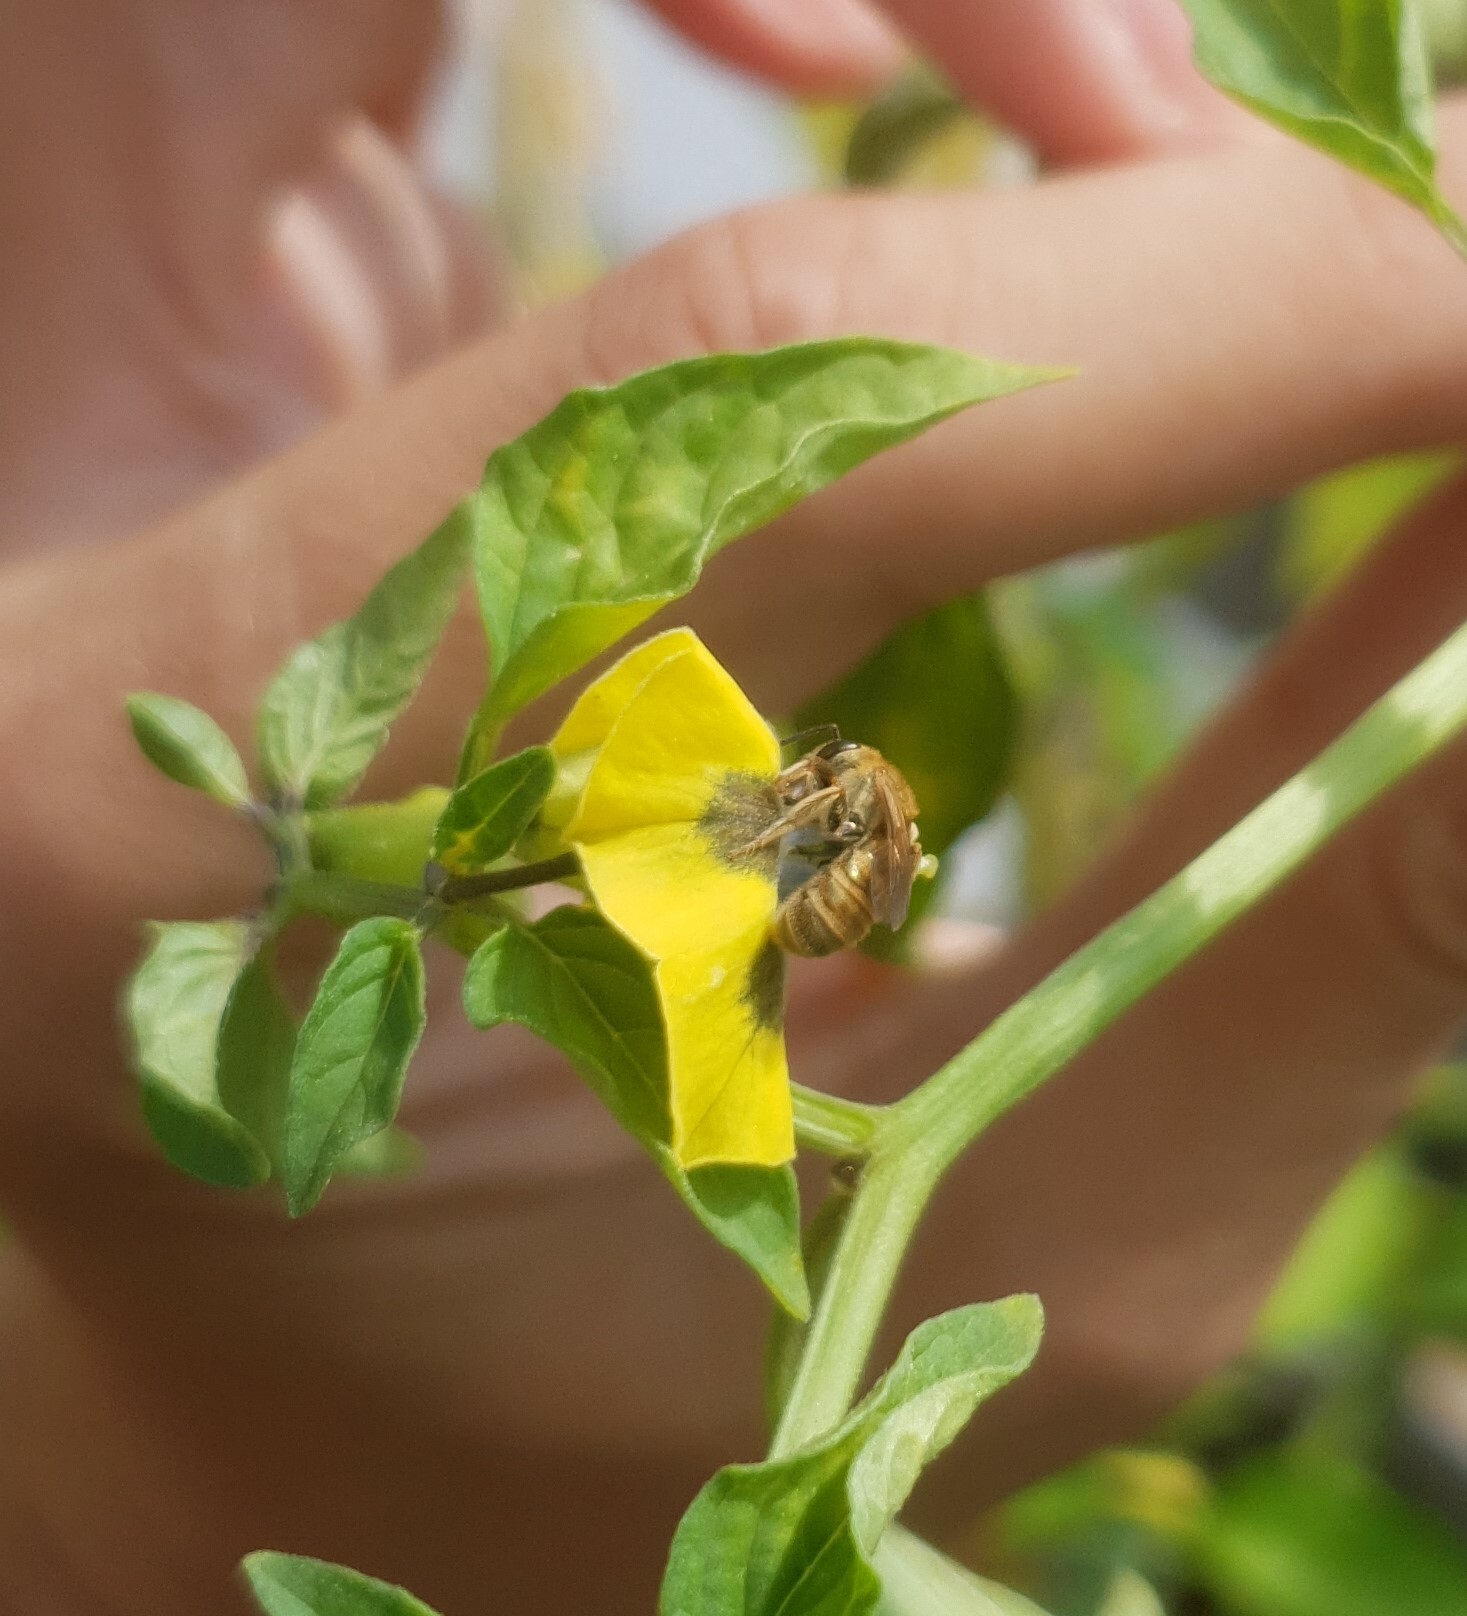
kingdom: Animalia
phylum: Arthropoda
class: Insecta
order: Hymenoptera
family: Halictidae
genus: Halictus
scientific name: Halictus subauratus
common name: Golden furrow bee
